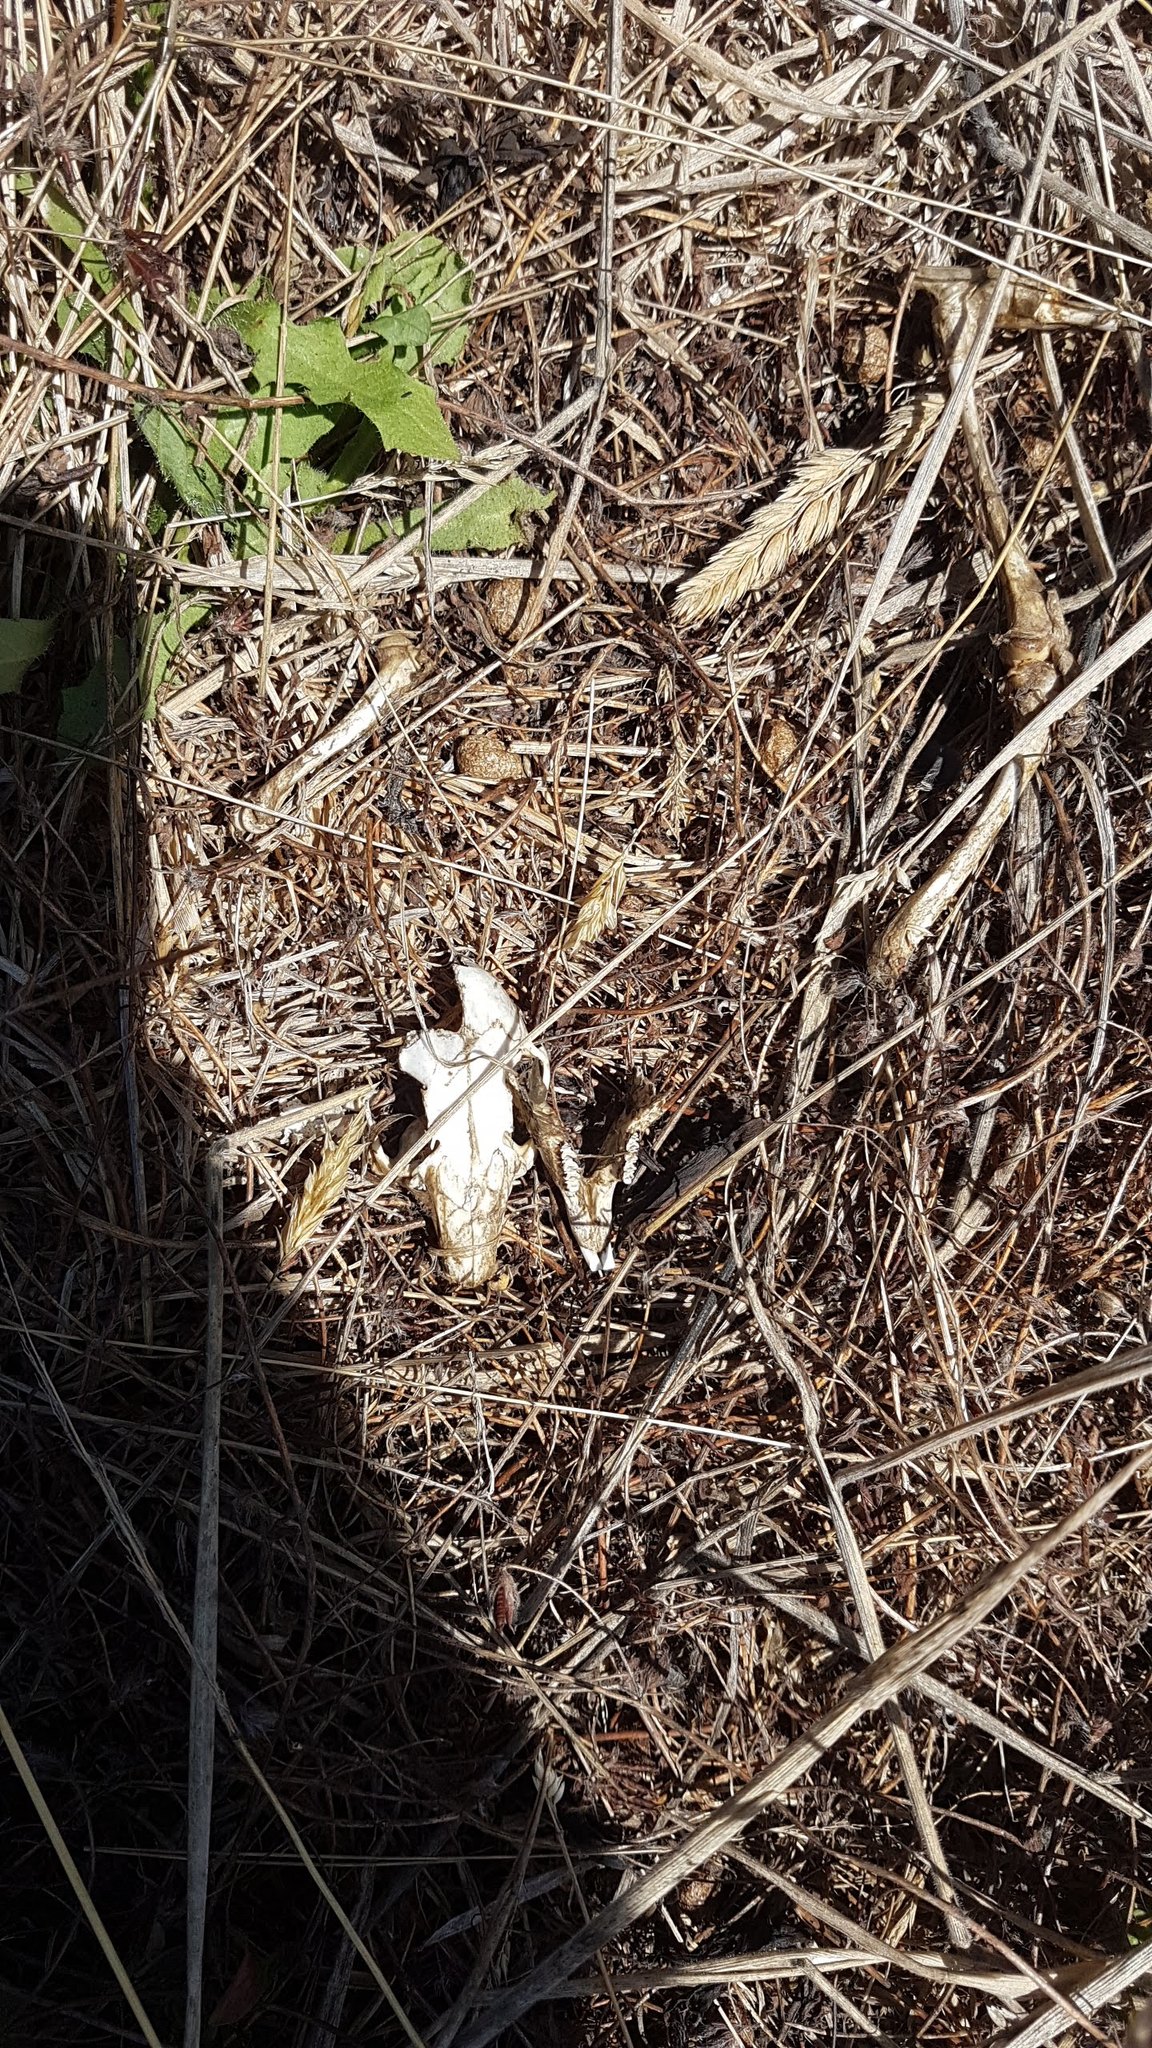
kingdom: Animalia
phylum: Chordata
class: Mammalia
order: Lagomorpha
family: Leporidae
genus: Oryctolagus
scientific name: Oryctolagus cuniculus
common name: European rabbit
